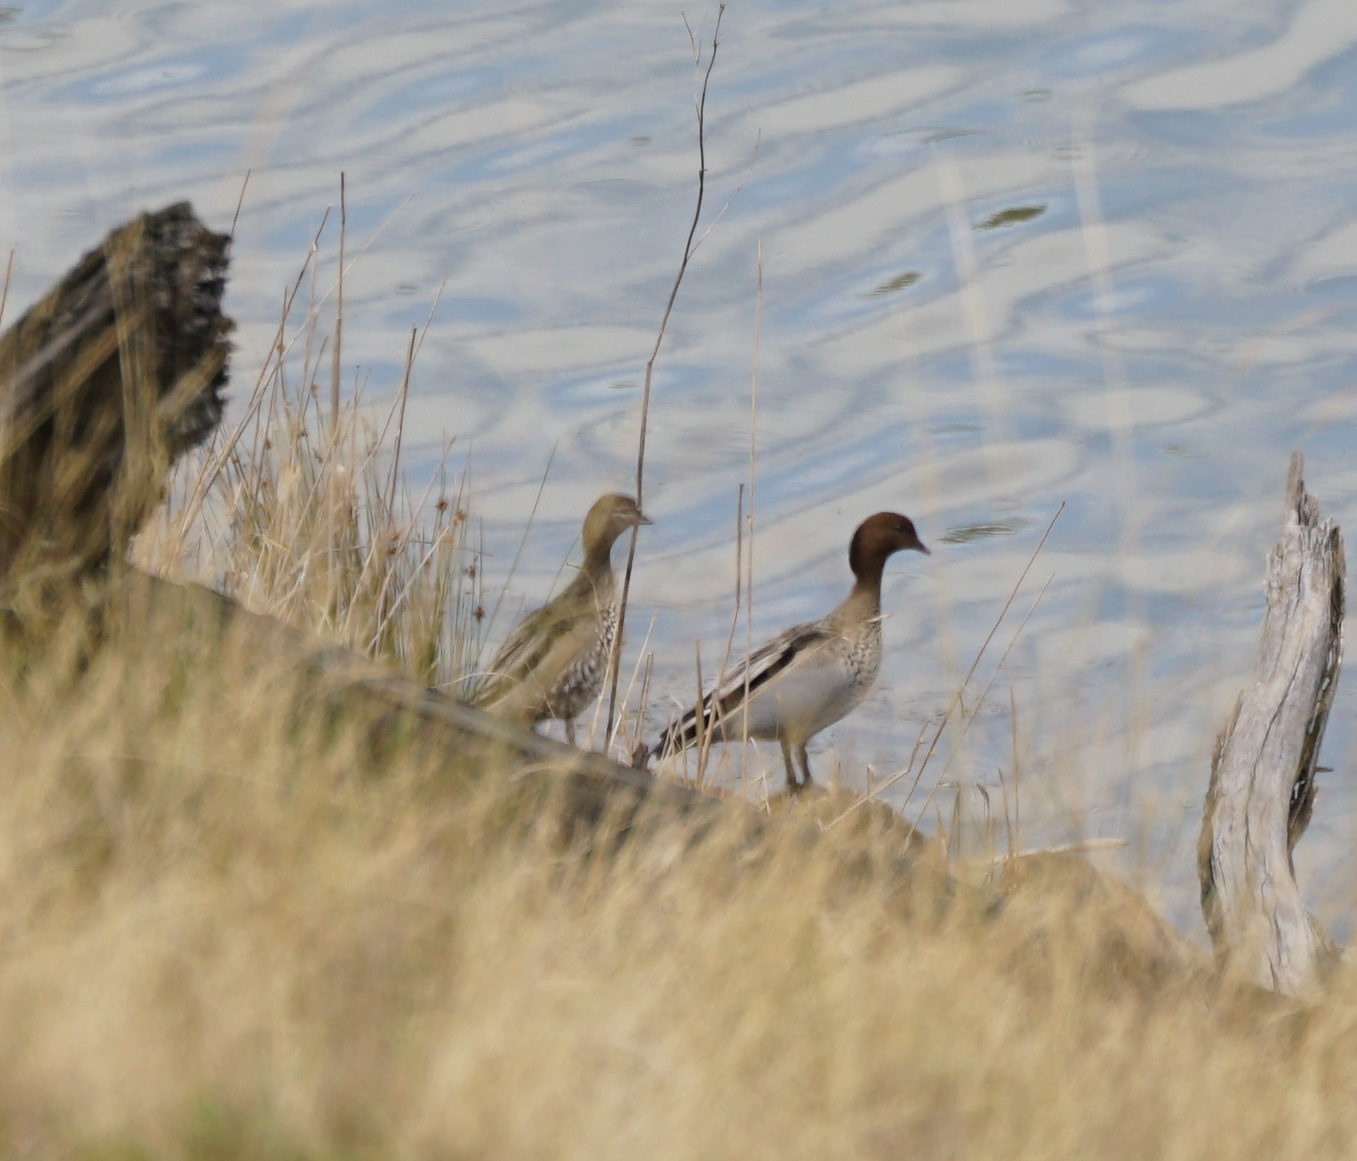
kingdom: Animalia
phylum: Chordata
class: Aves
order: Anseriformes
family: Anatidae
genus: Chenonetta
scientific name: Chenonetta jubata
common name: Maned duck
